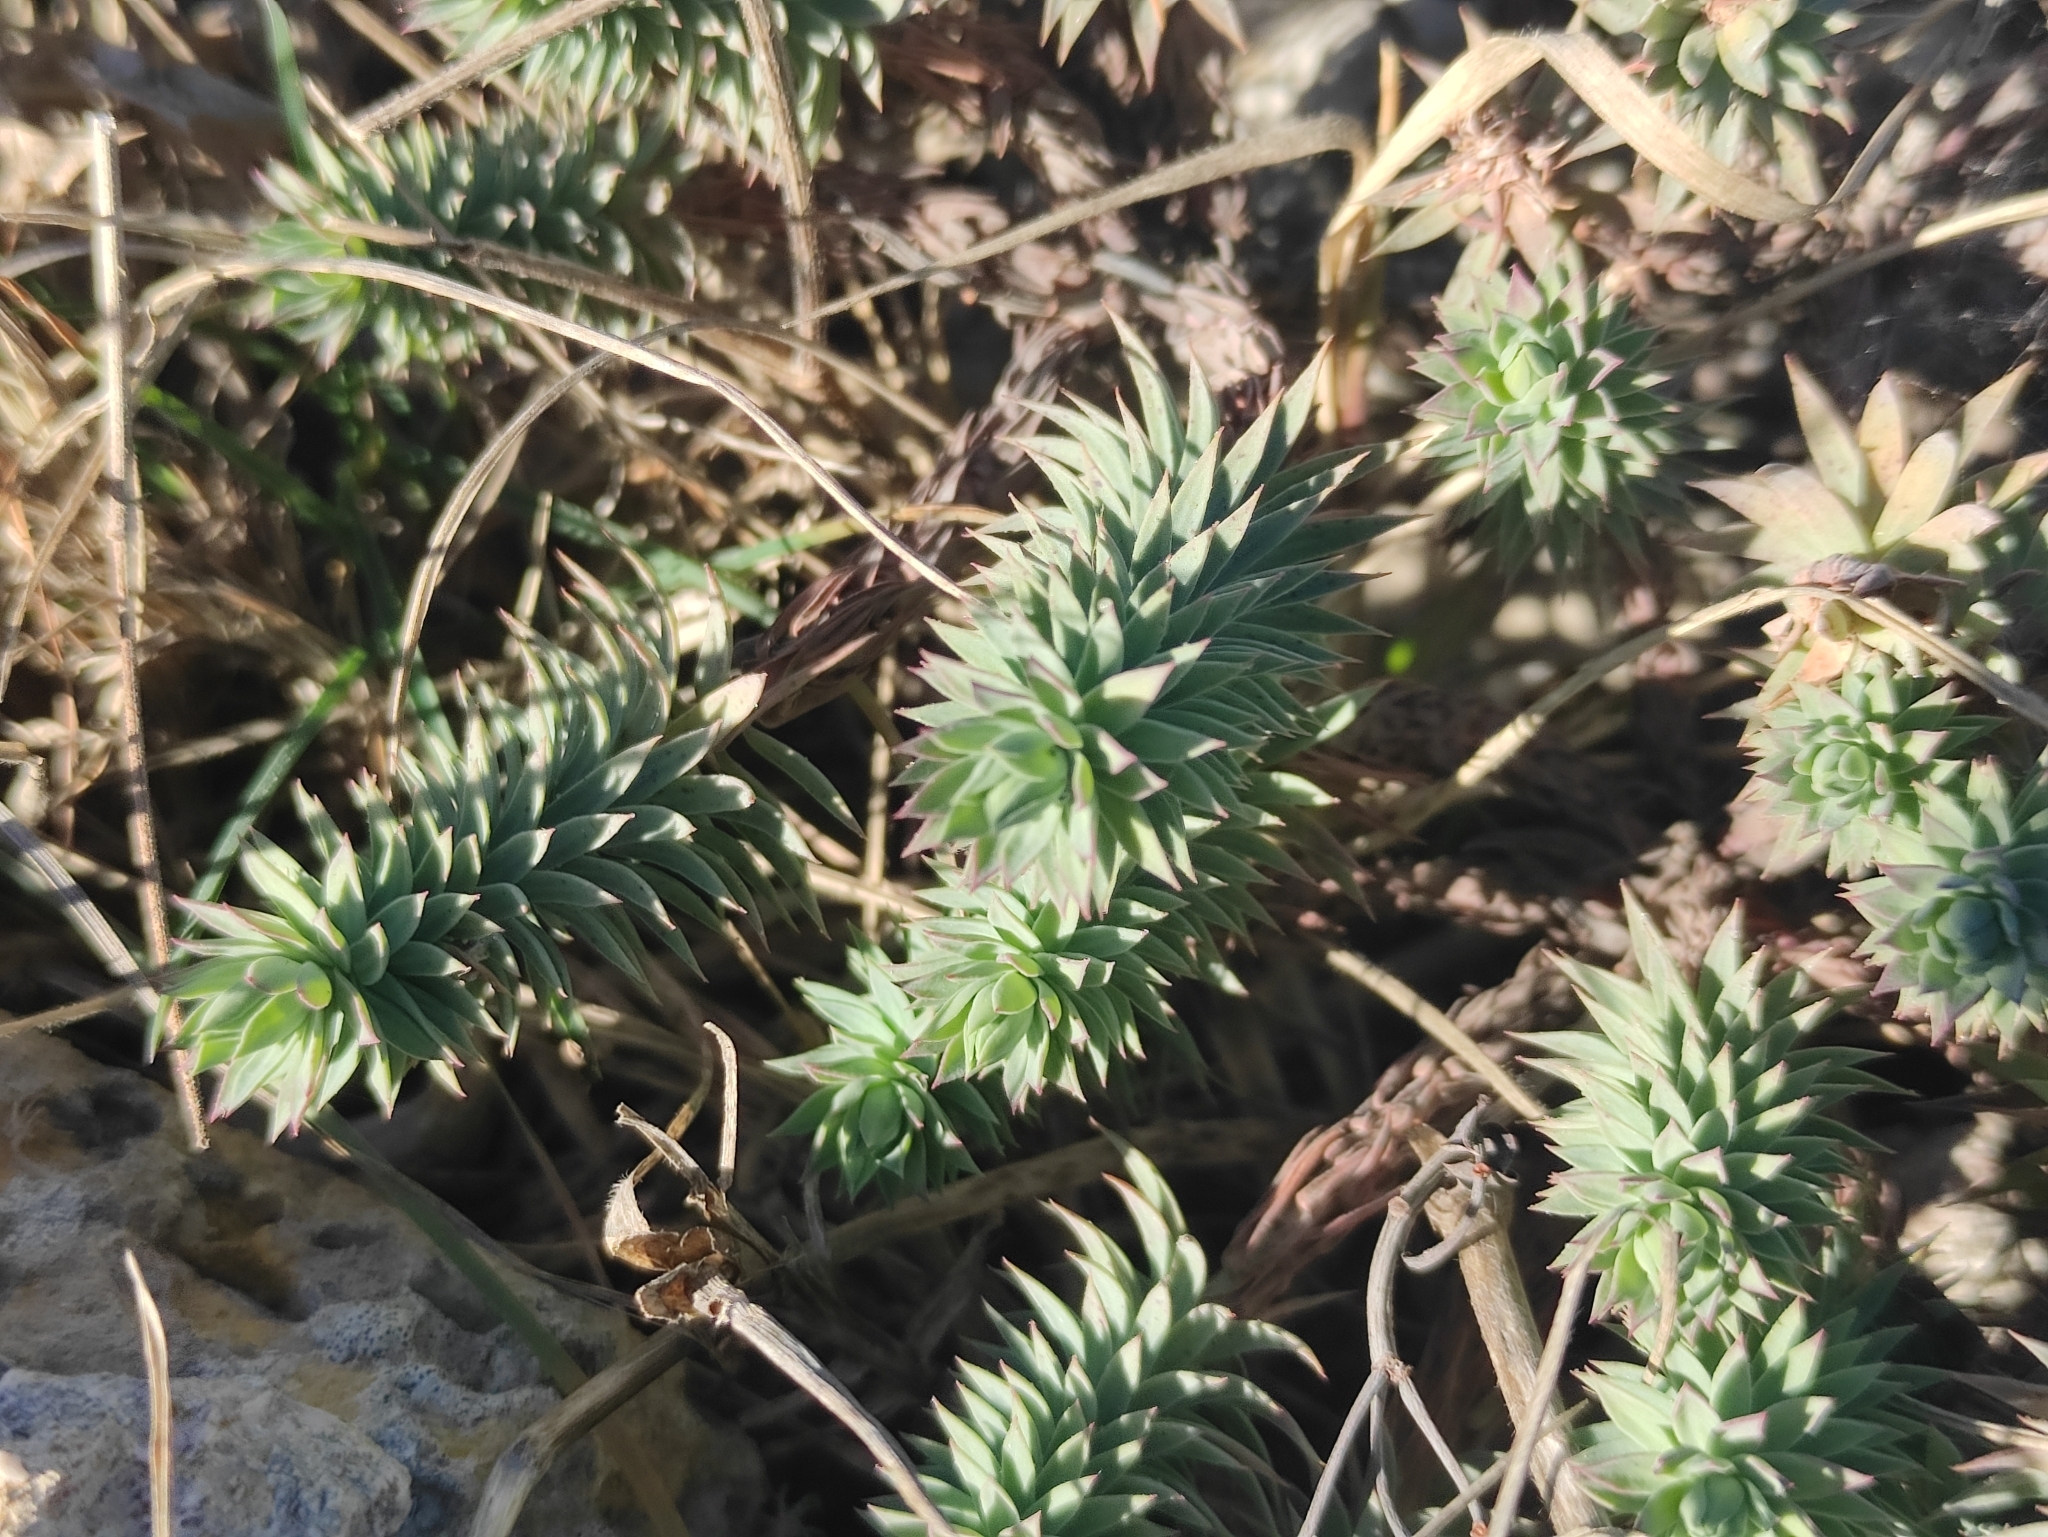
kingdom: Plantae
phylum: Tracheophyta
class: Magnoliopsida
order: Malpighiales
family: Euphorbiaceae
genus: Euphorbia
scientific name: Euphorbia pithyusa
